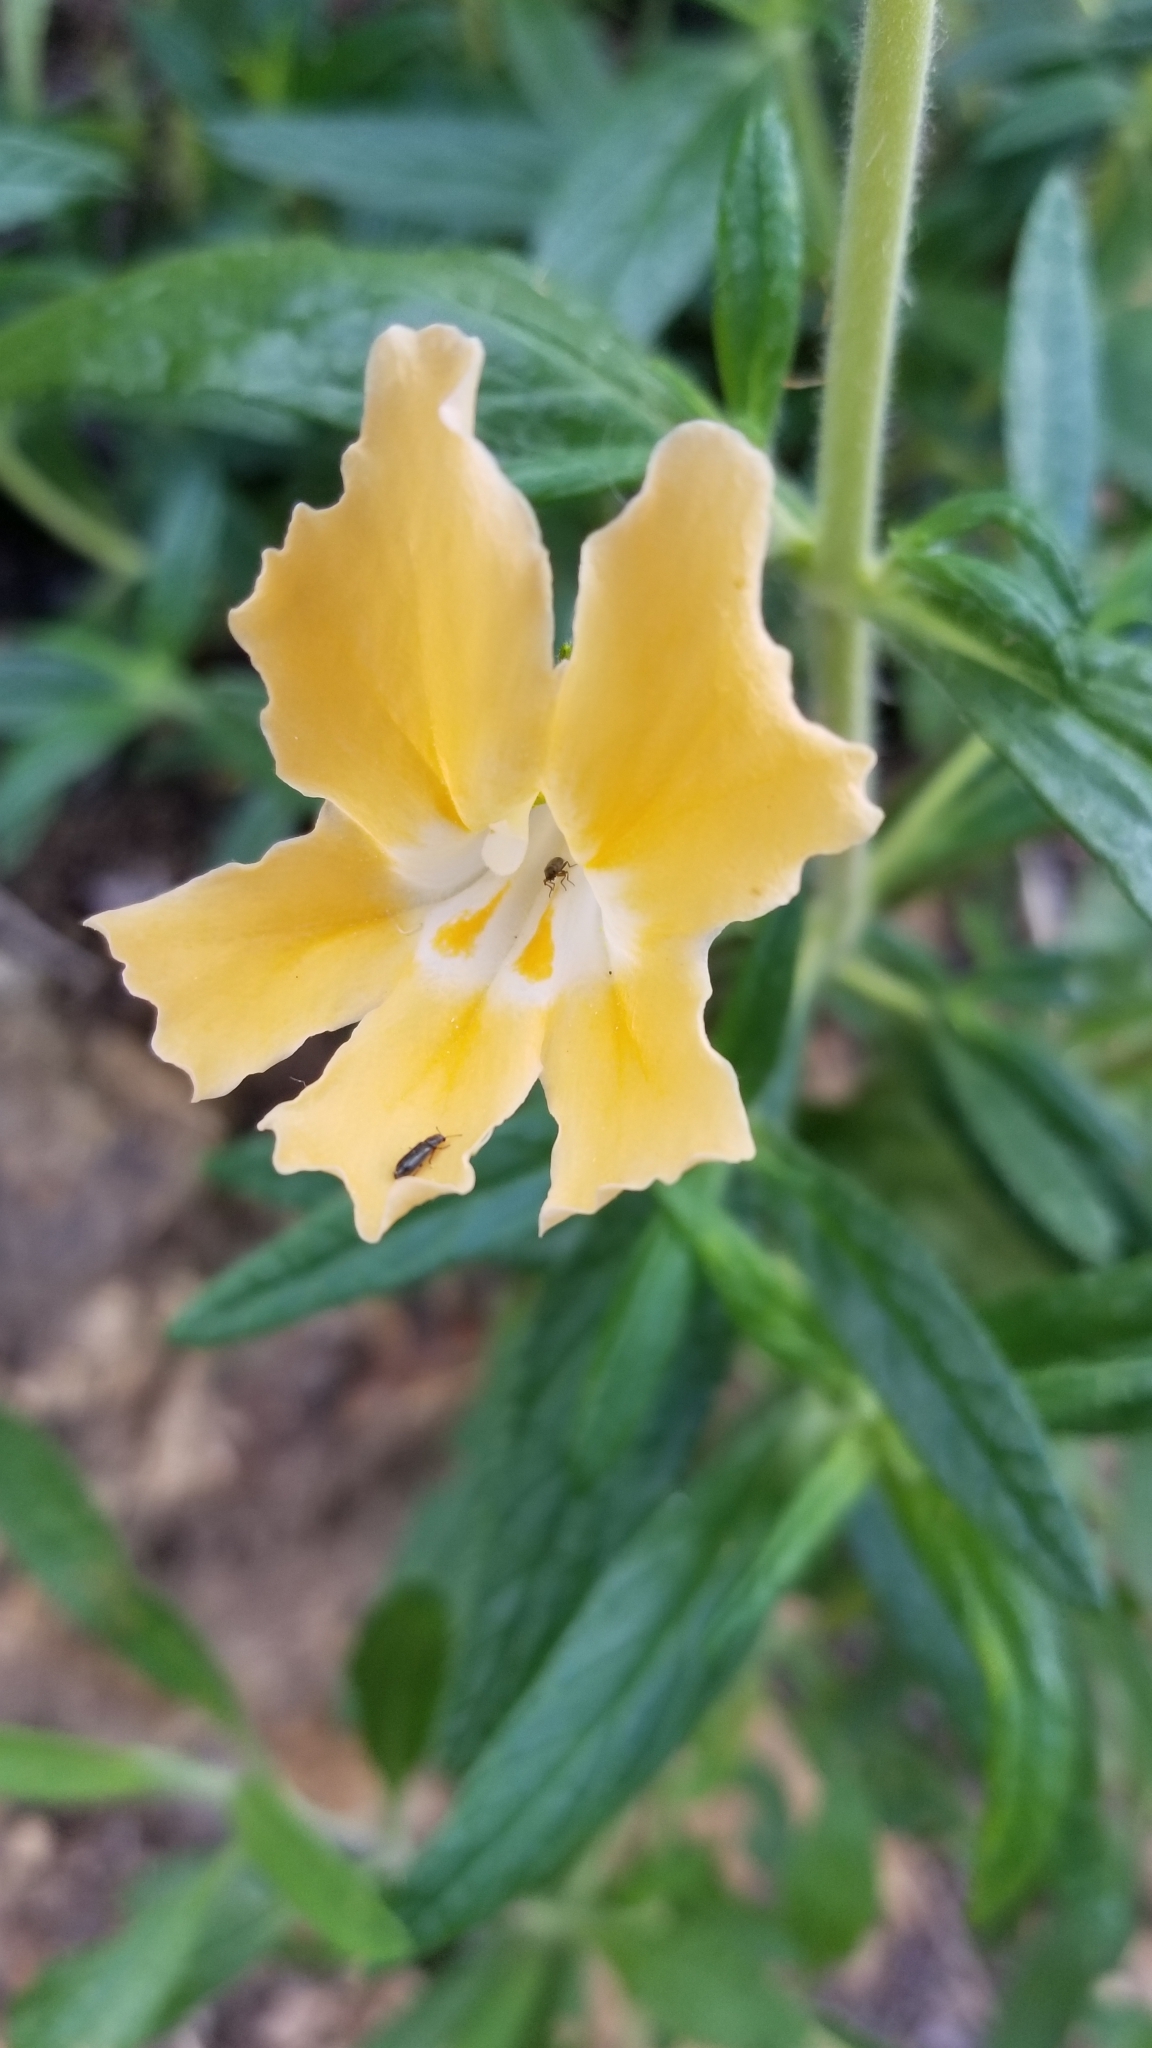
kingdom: Plantae
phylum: Tracheophyta
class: Magnoliopsida
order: Lamiales
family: Phrymaceae
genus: Diplacus
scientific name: Diplacus longiflorus
